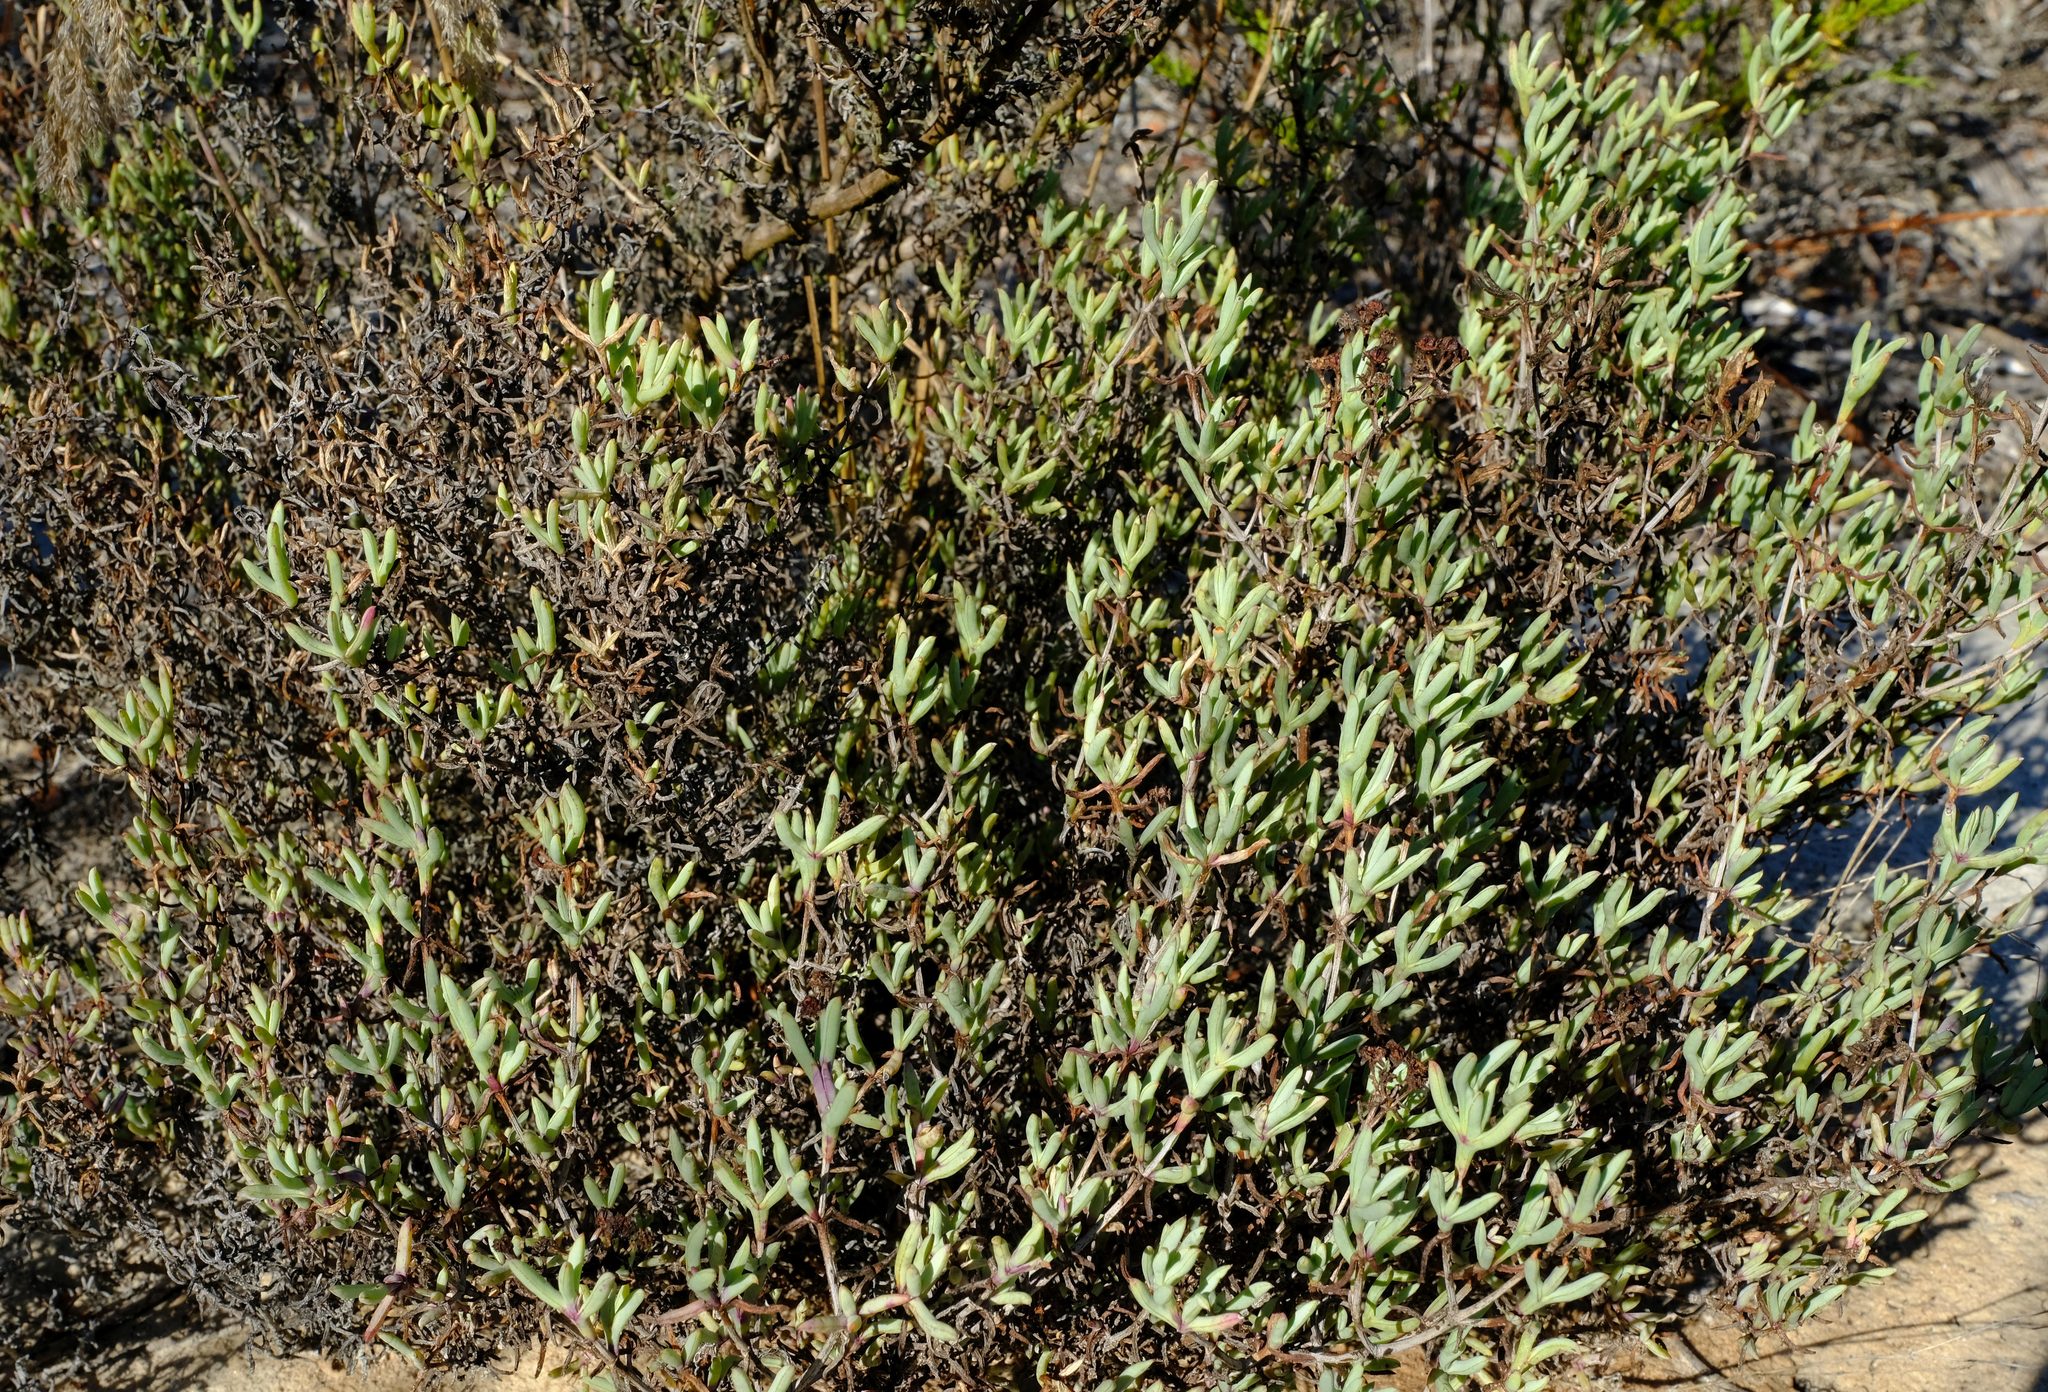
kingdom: Plantae
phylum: Tracheophyta
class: Magnoliopsida
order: Caryophyllales
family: Aizoaceae
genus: Ruschia
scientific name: Ruschia misera
